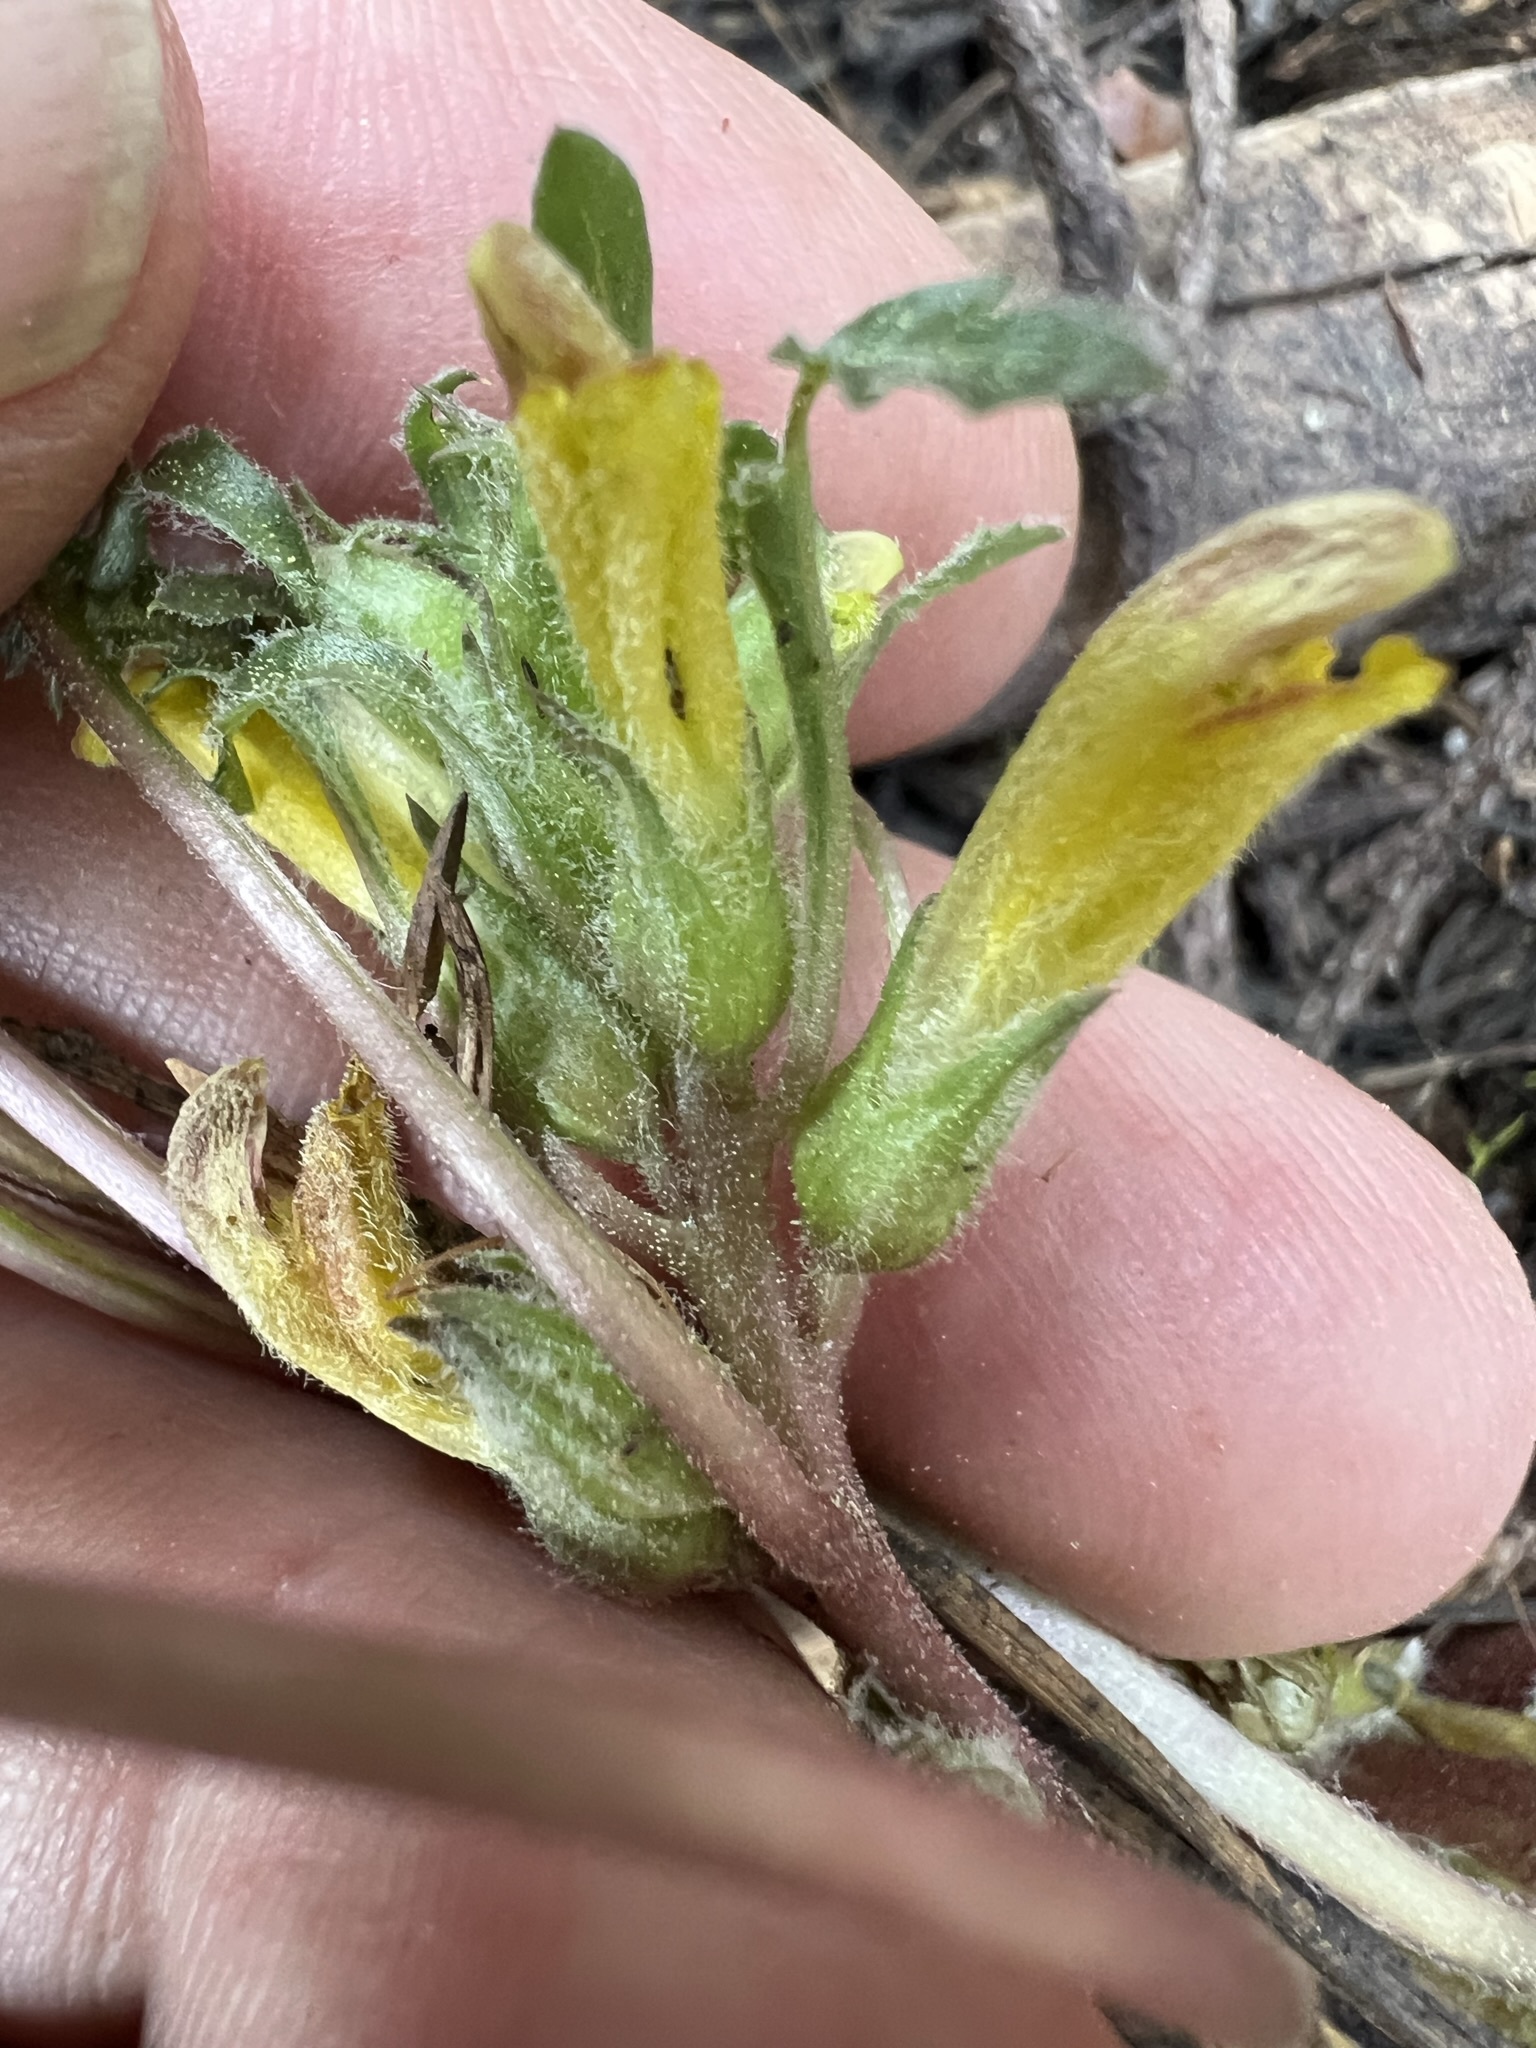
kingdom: Plantae
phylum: Tracheophyta
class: Magnoliopsida
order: Lamiales
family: Orobanchaceae
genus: Pedicularis
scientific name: Pedicularis semibarbata
